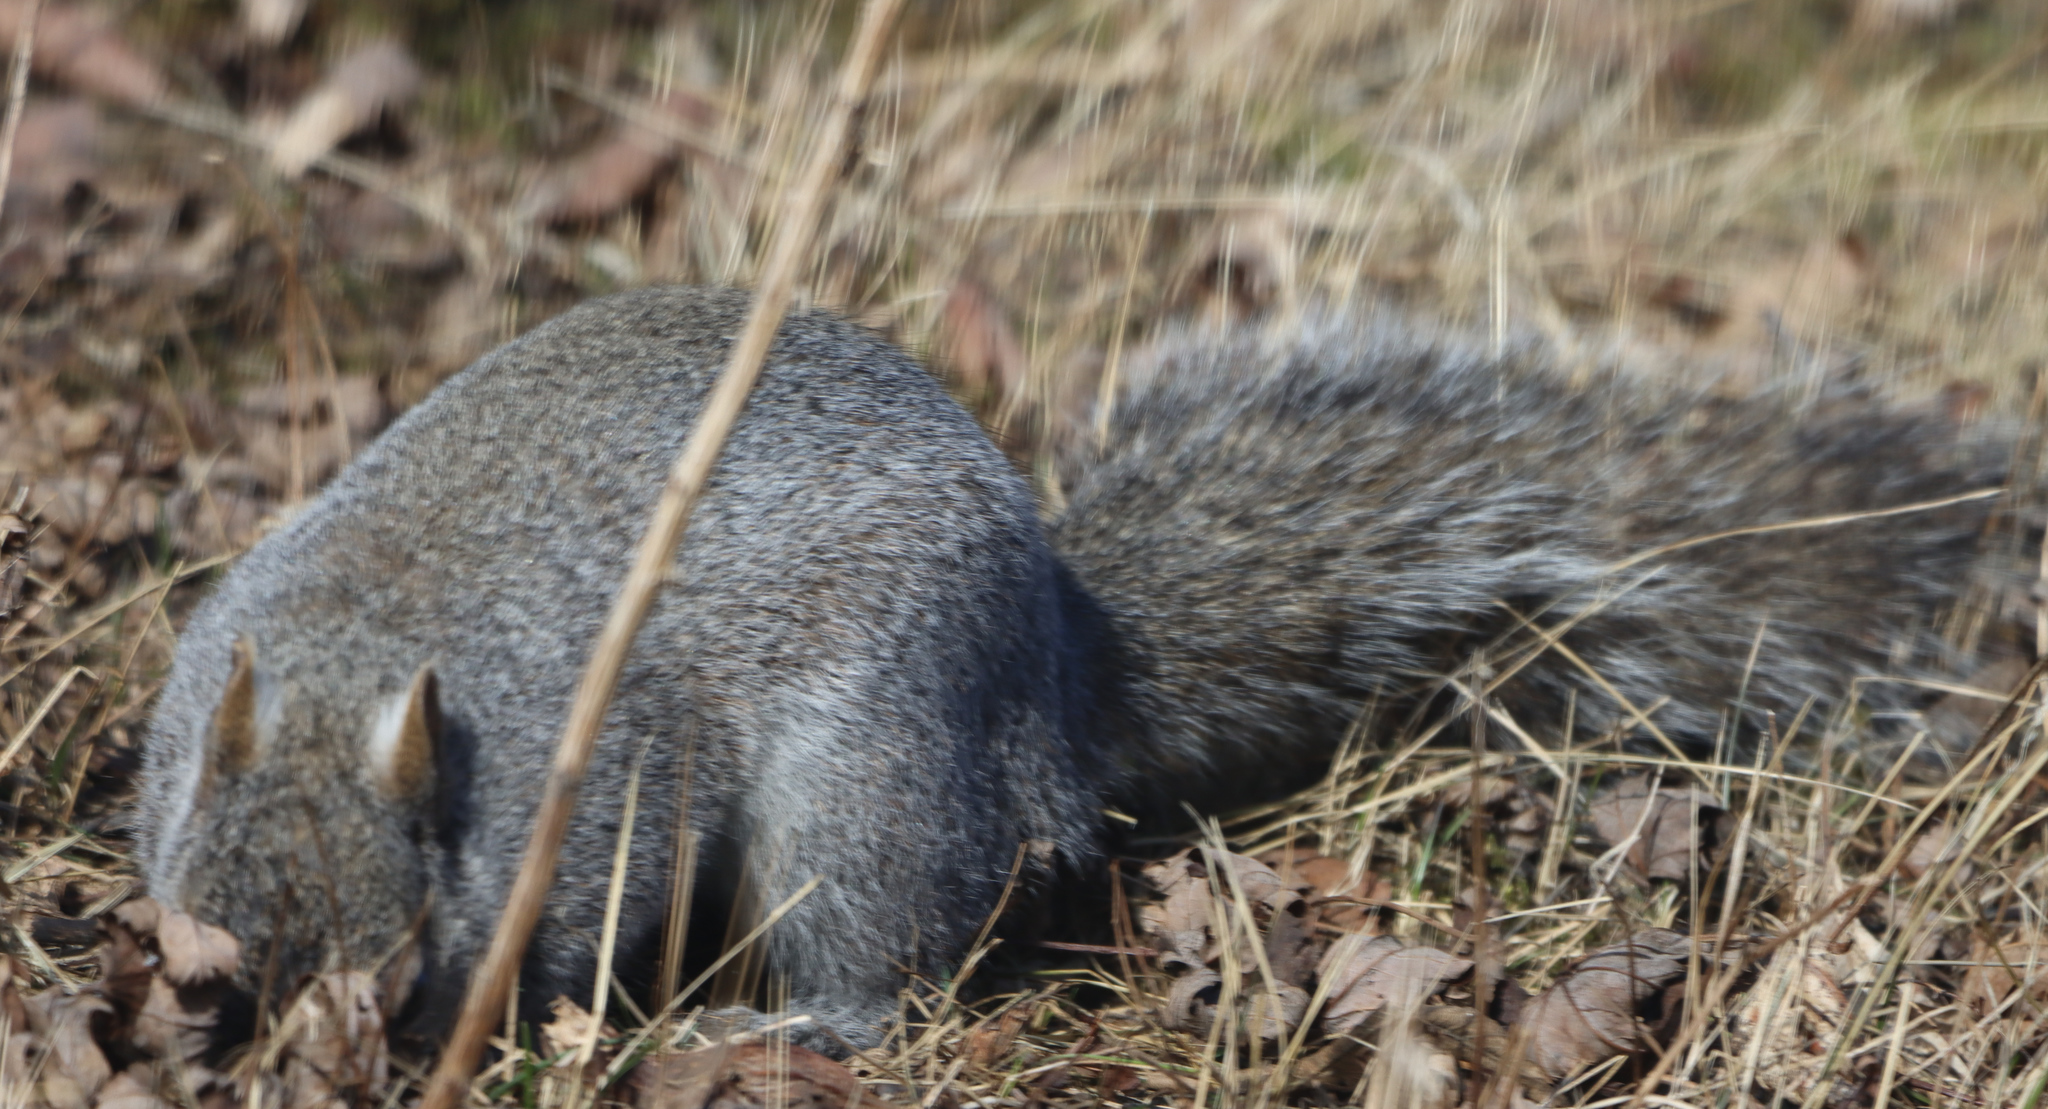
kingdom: Animalia
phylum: Chordata
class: Mammalia
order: Rodentia
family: Sciuridae
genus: Sciurus
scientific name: Sciurus carolinensis
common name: Eastern gray squirrel
